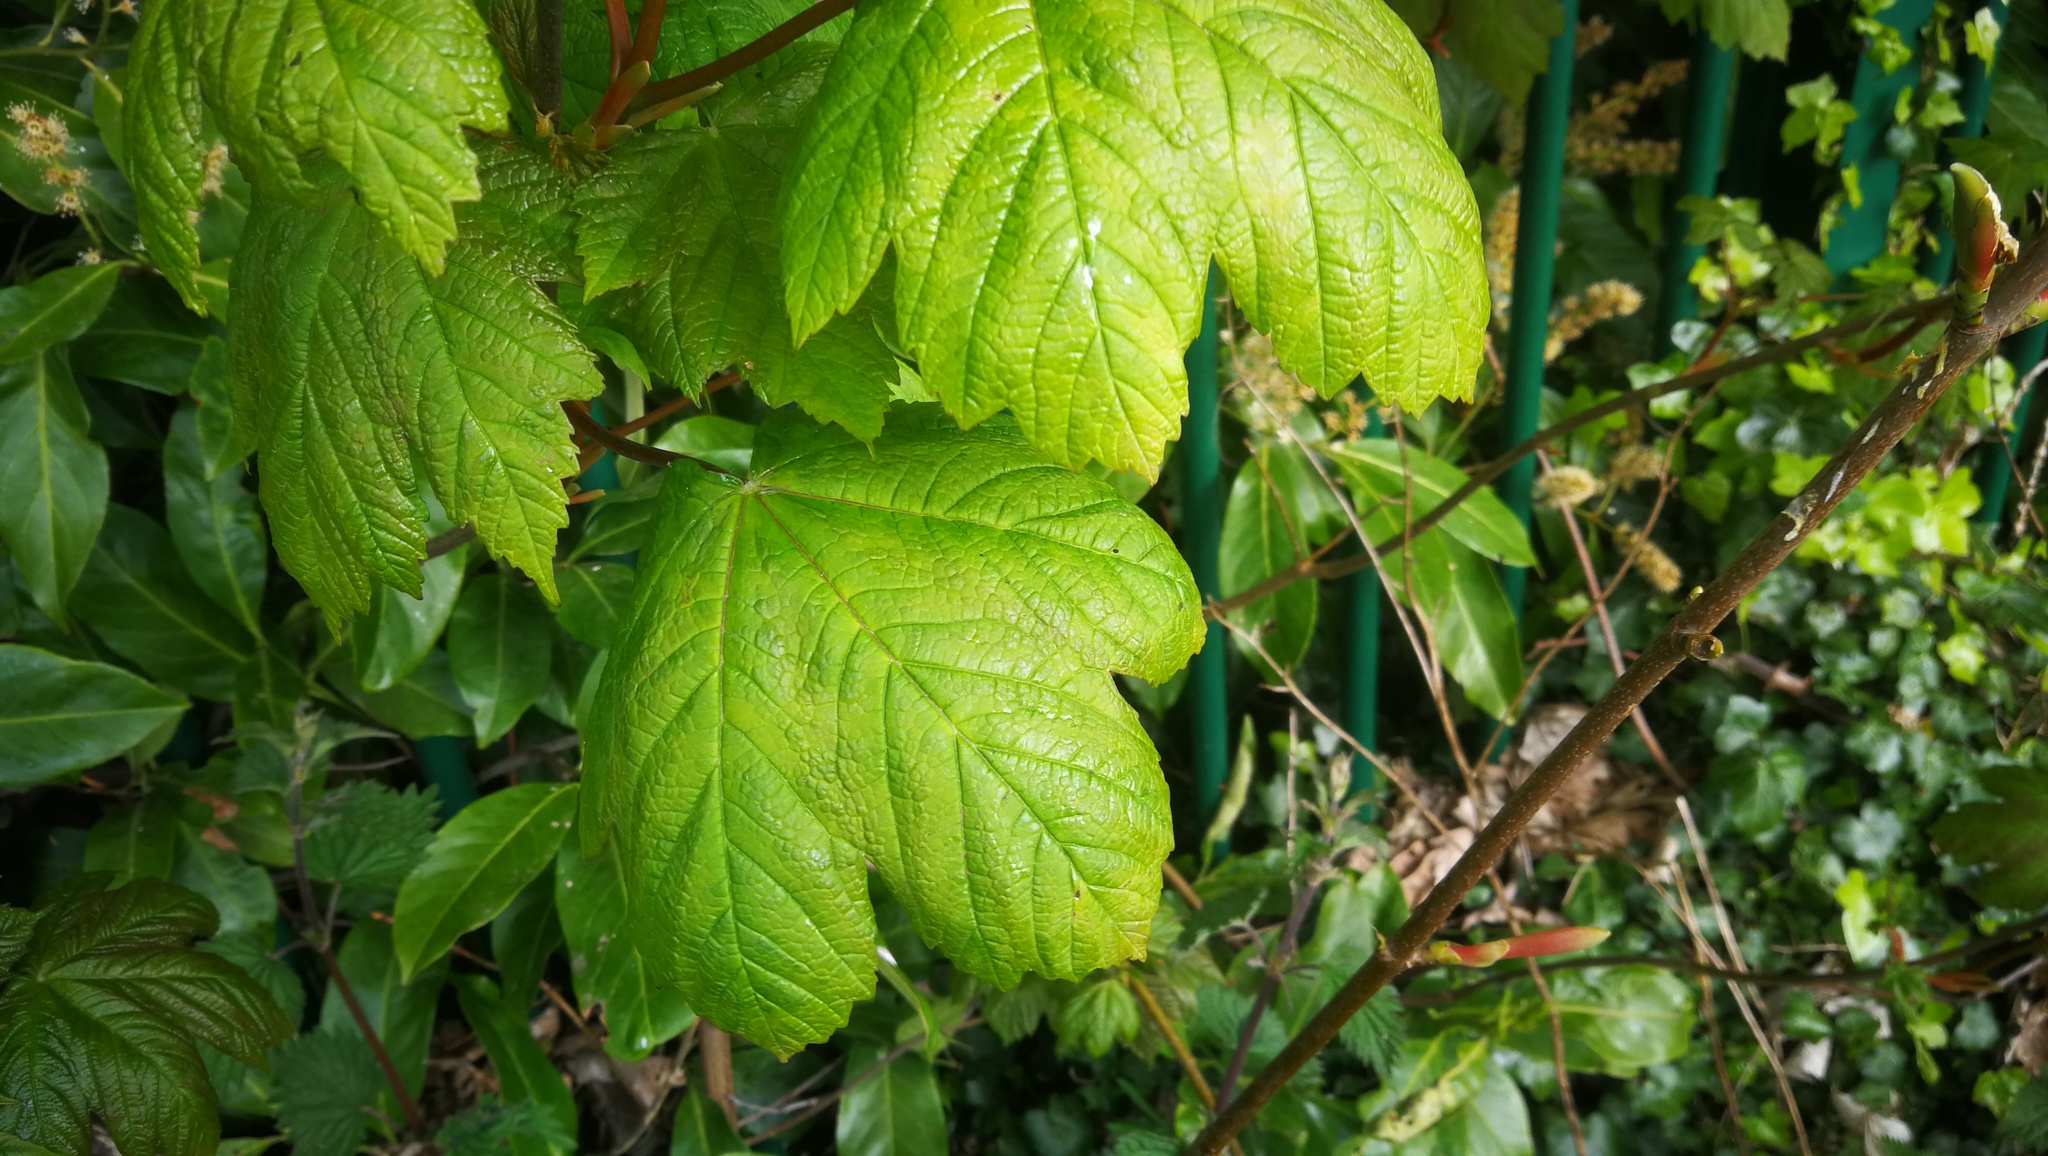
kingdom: Plantae
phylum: Tracheophyta
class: Magnoliopsida
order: Sapindales
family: Sapindaceae
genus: Acer
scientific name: Acer pseudoplatanus
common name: Sycamore
